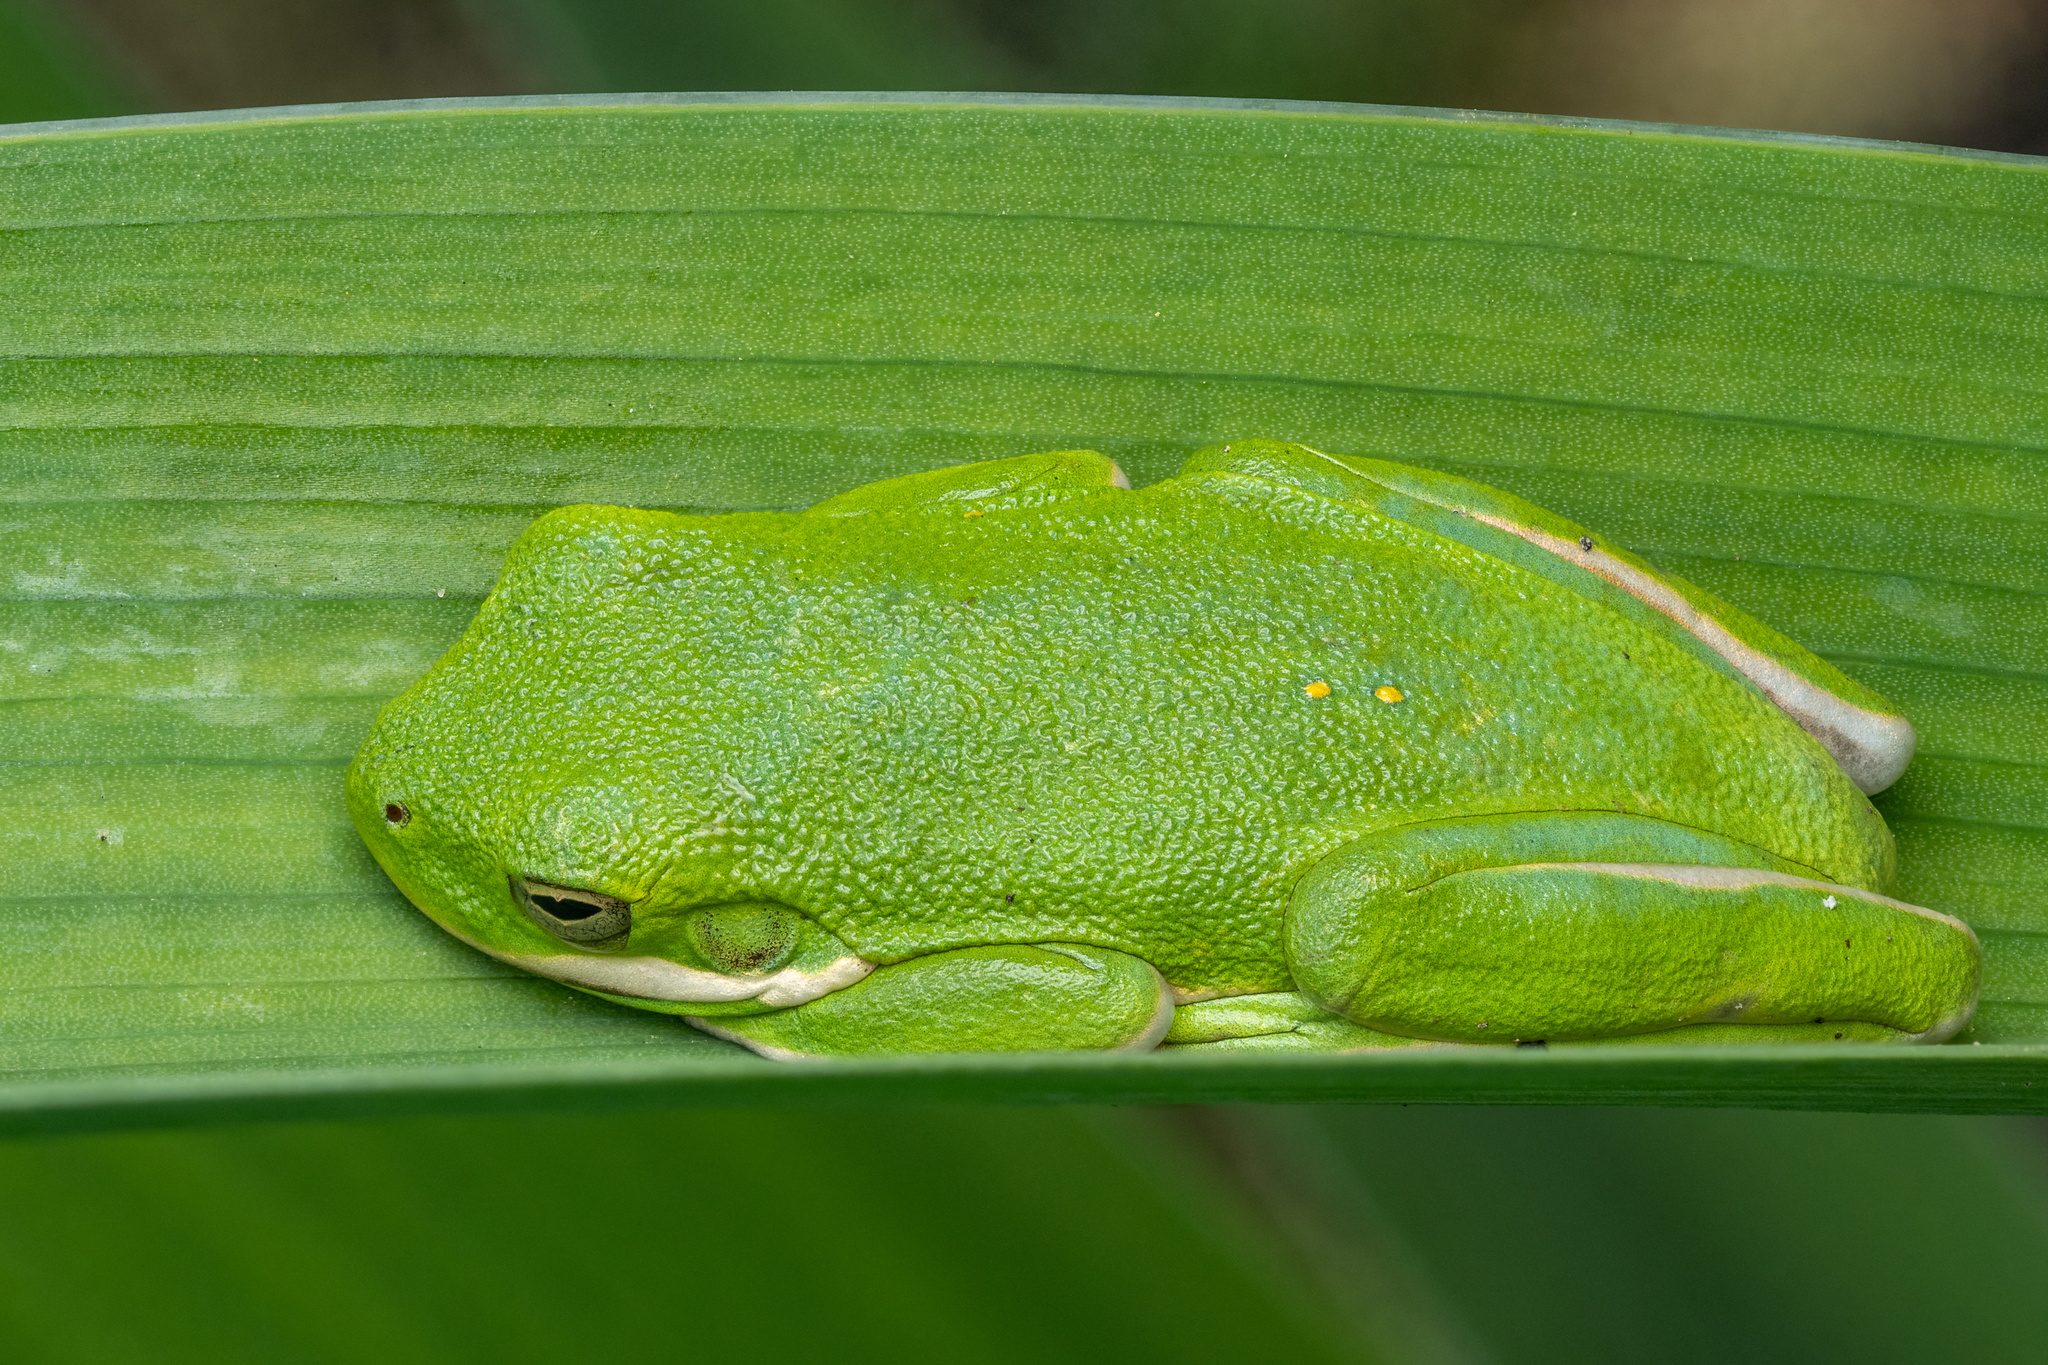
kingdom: Animalia
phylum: Chordata
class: Amphibia
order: Anura
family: Hylidae
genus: Dryophytes
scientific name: Dryophytes cinereus
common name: Green treefrog
